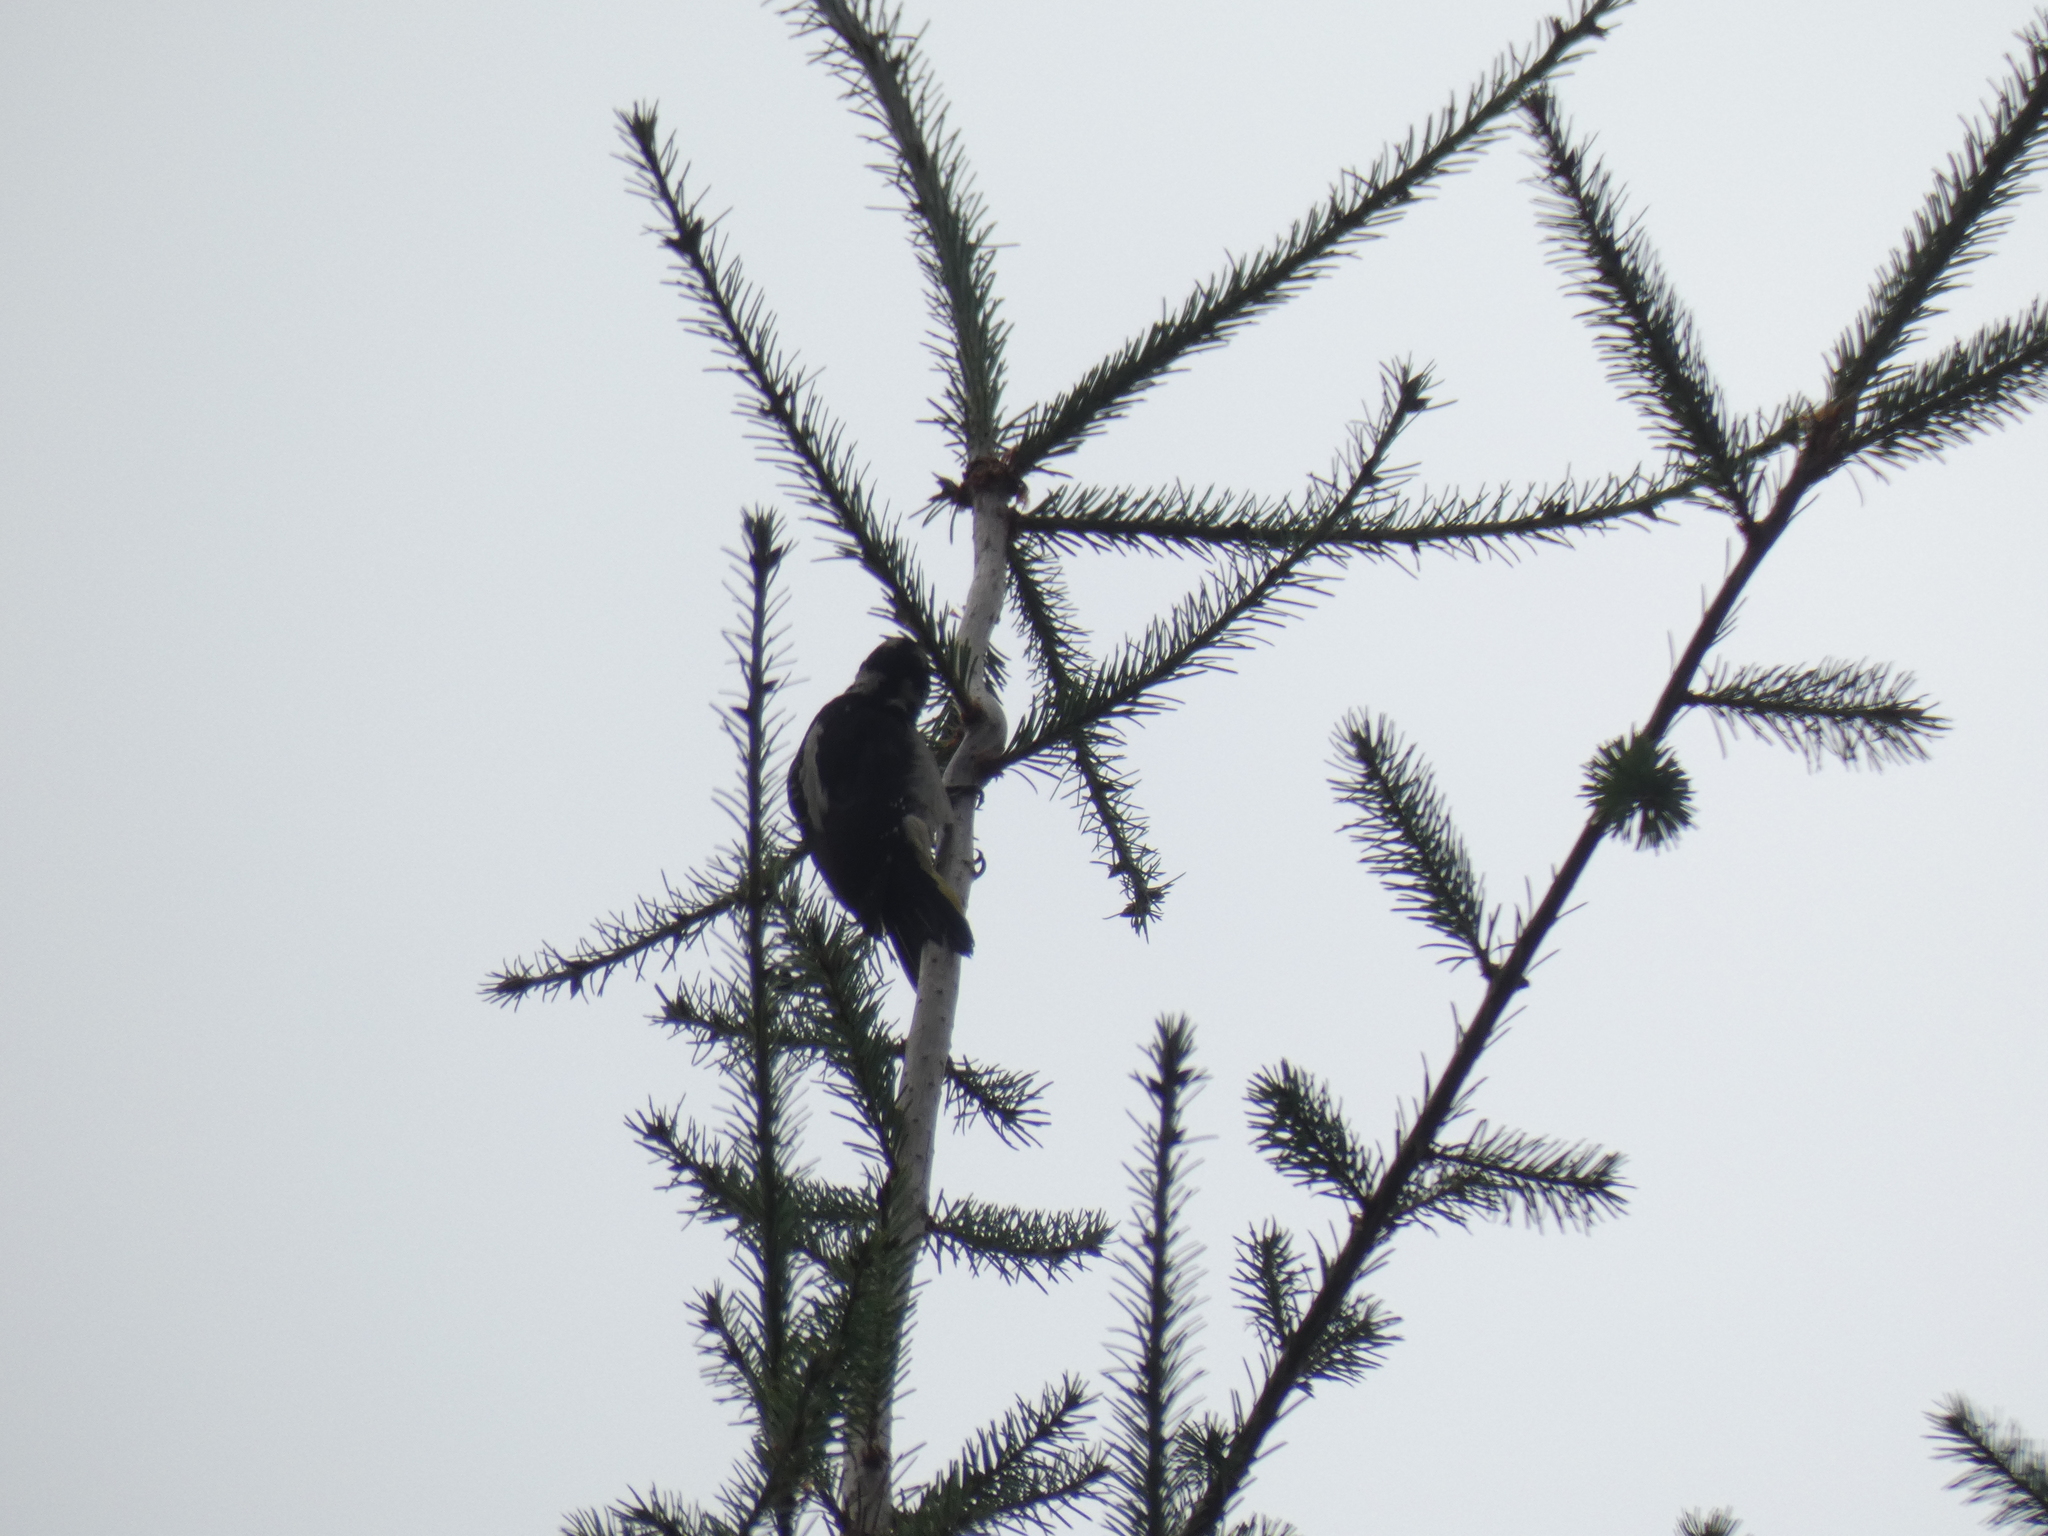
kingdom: Animalia
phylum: Chordata
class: Aves
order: Piciformes
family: Picidae
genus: Leuconotopicus
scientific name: Leuconotopicus villosus
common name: Hairy woodpecker
